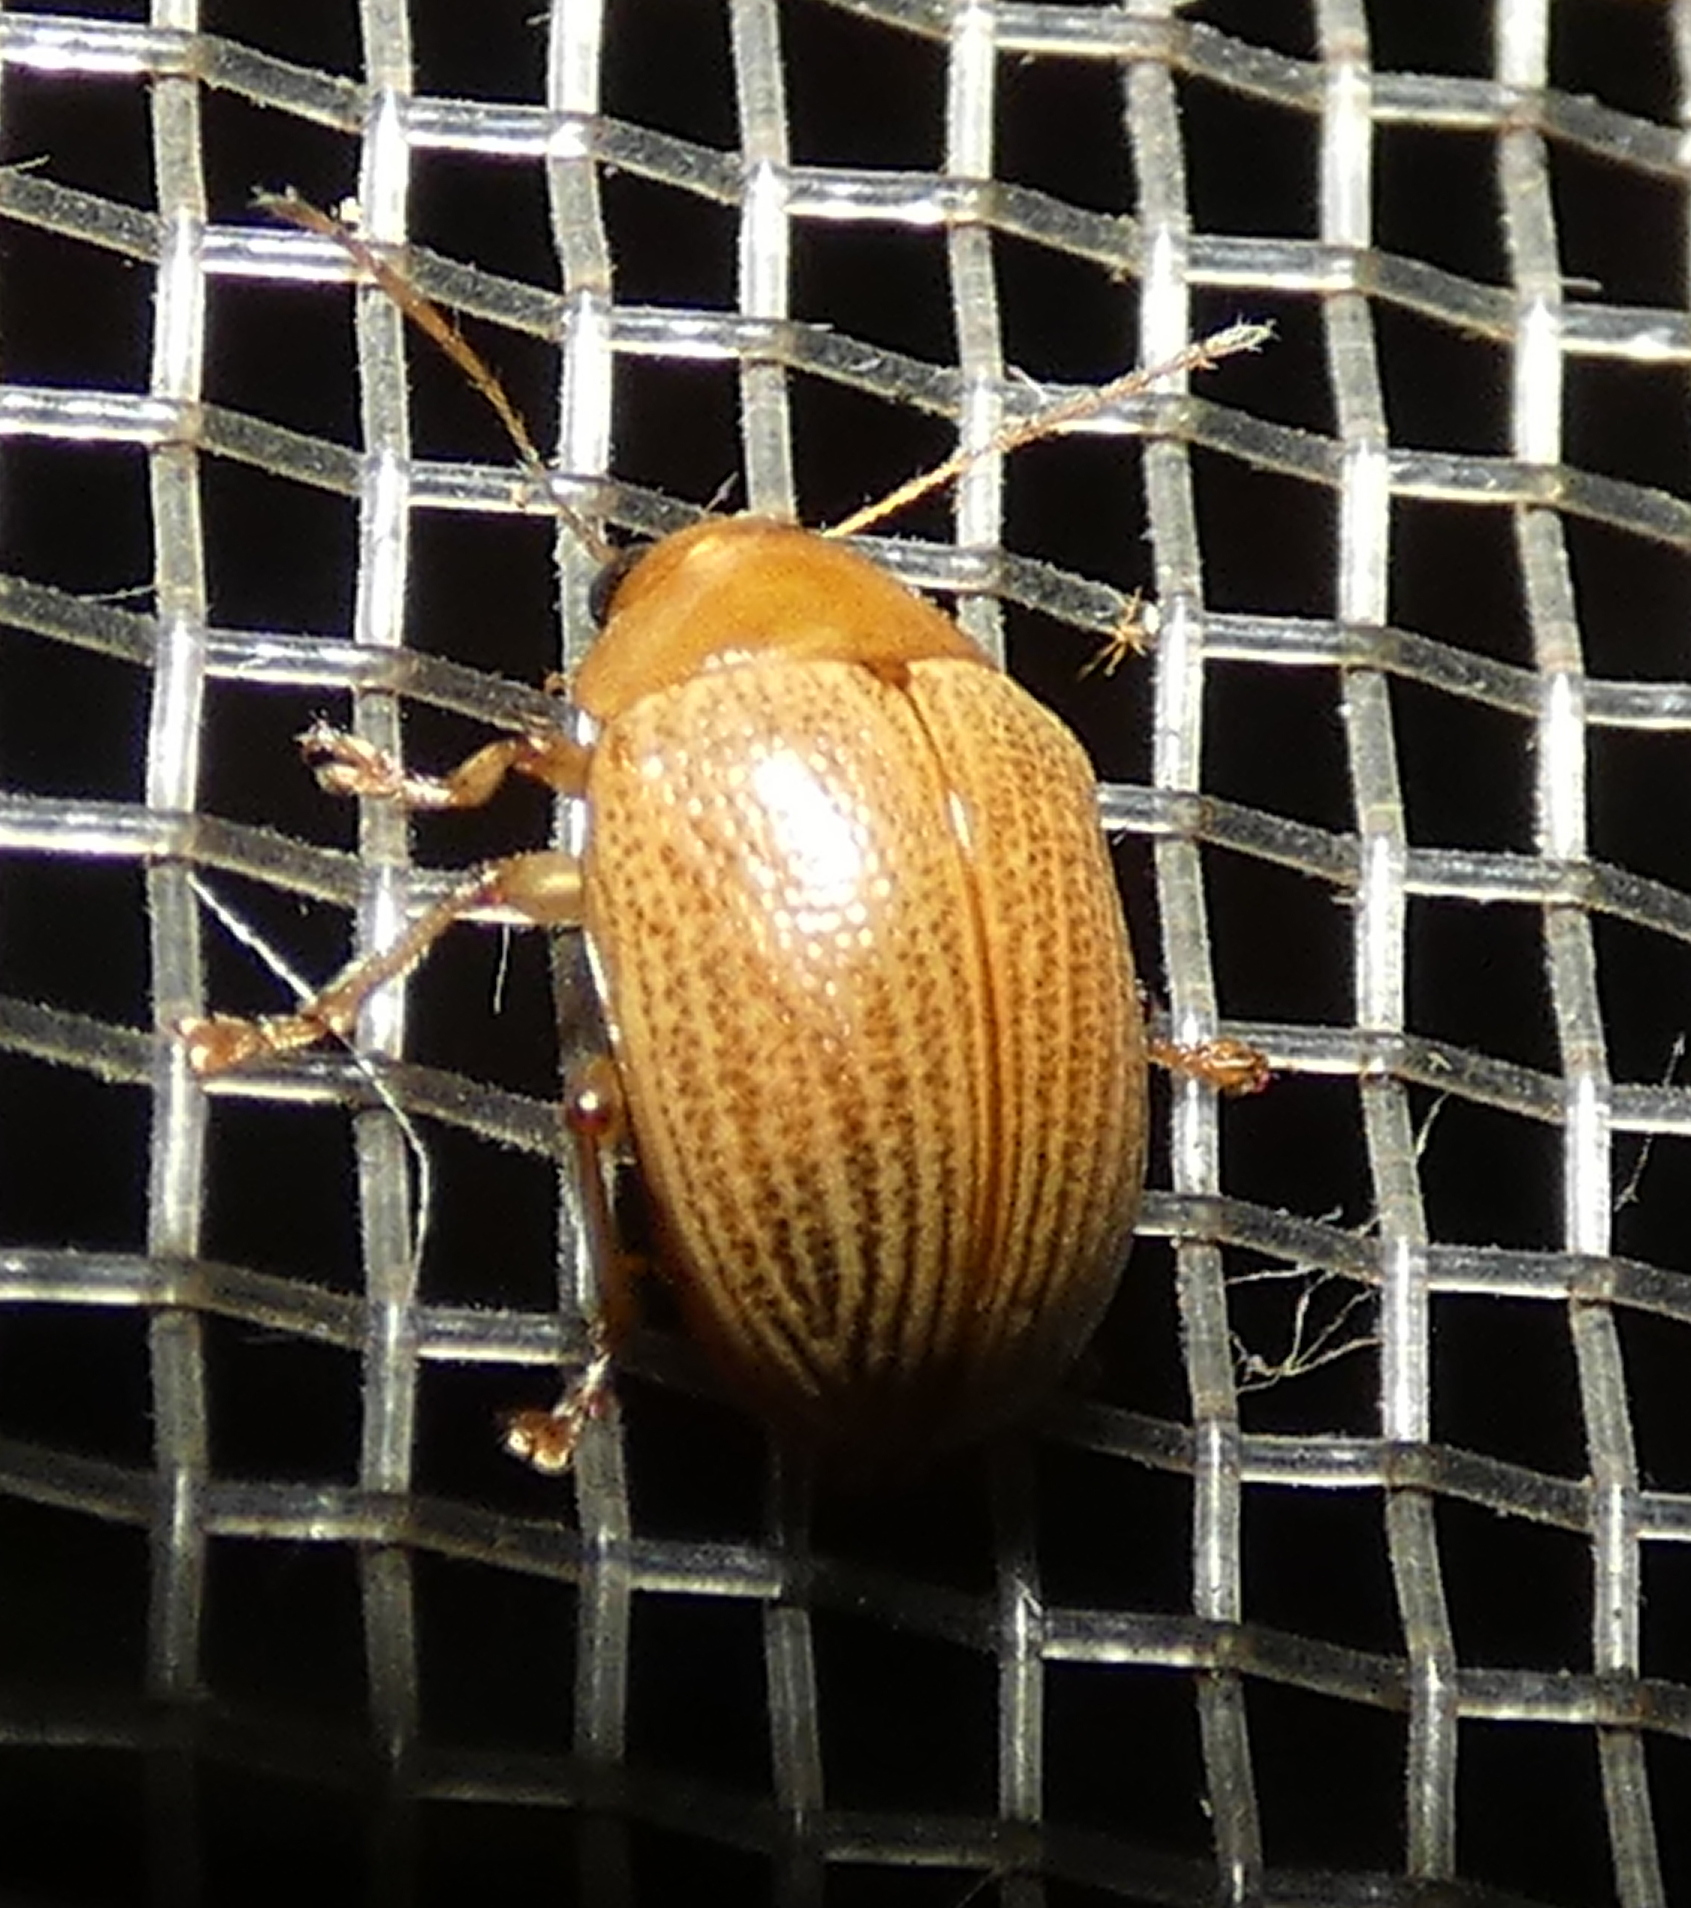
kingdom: Animalia
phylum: Arthropoda
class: Insecta
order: Coleoptera
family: Chrysomelidae
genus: Anisodera
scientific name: Anisodera ferruginea
